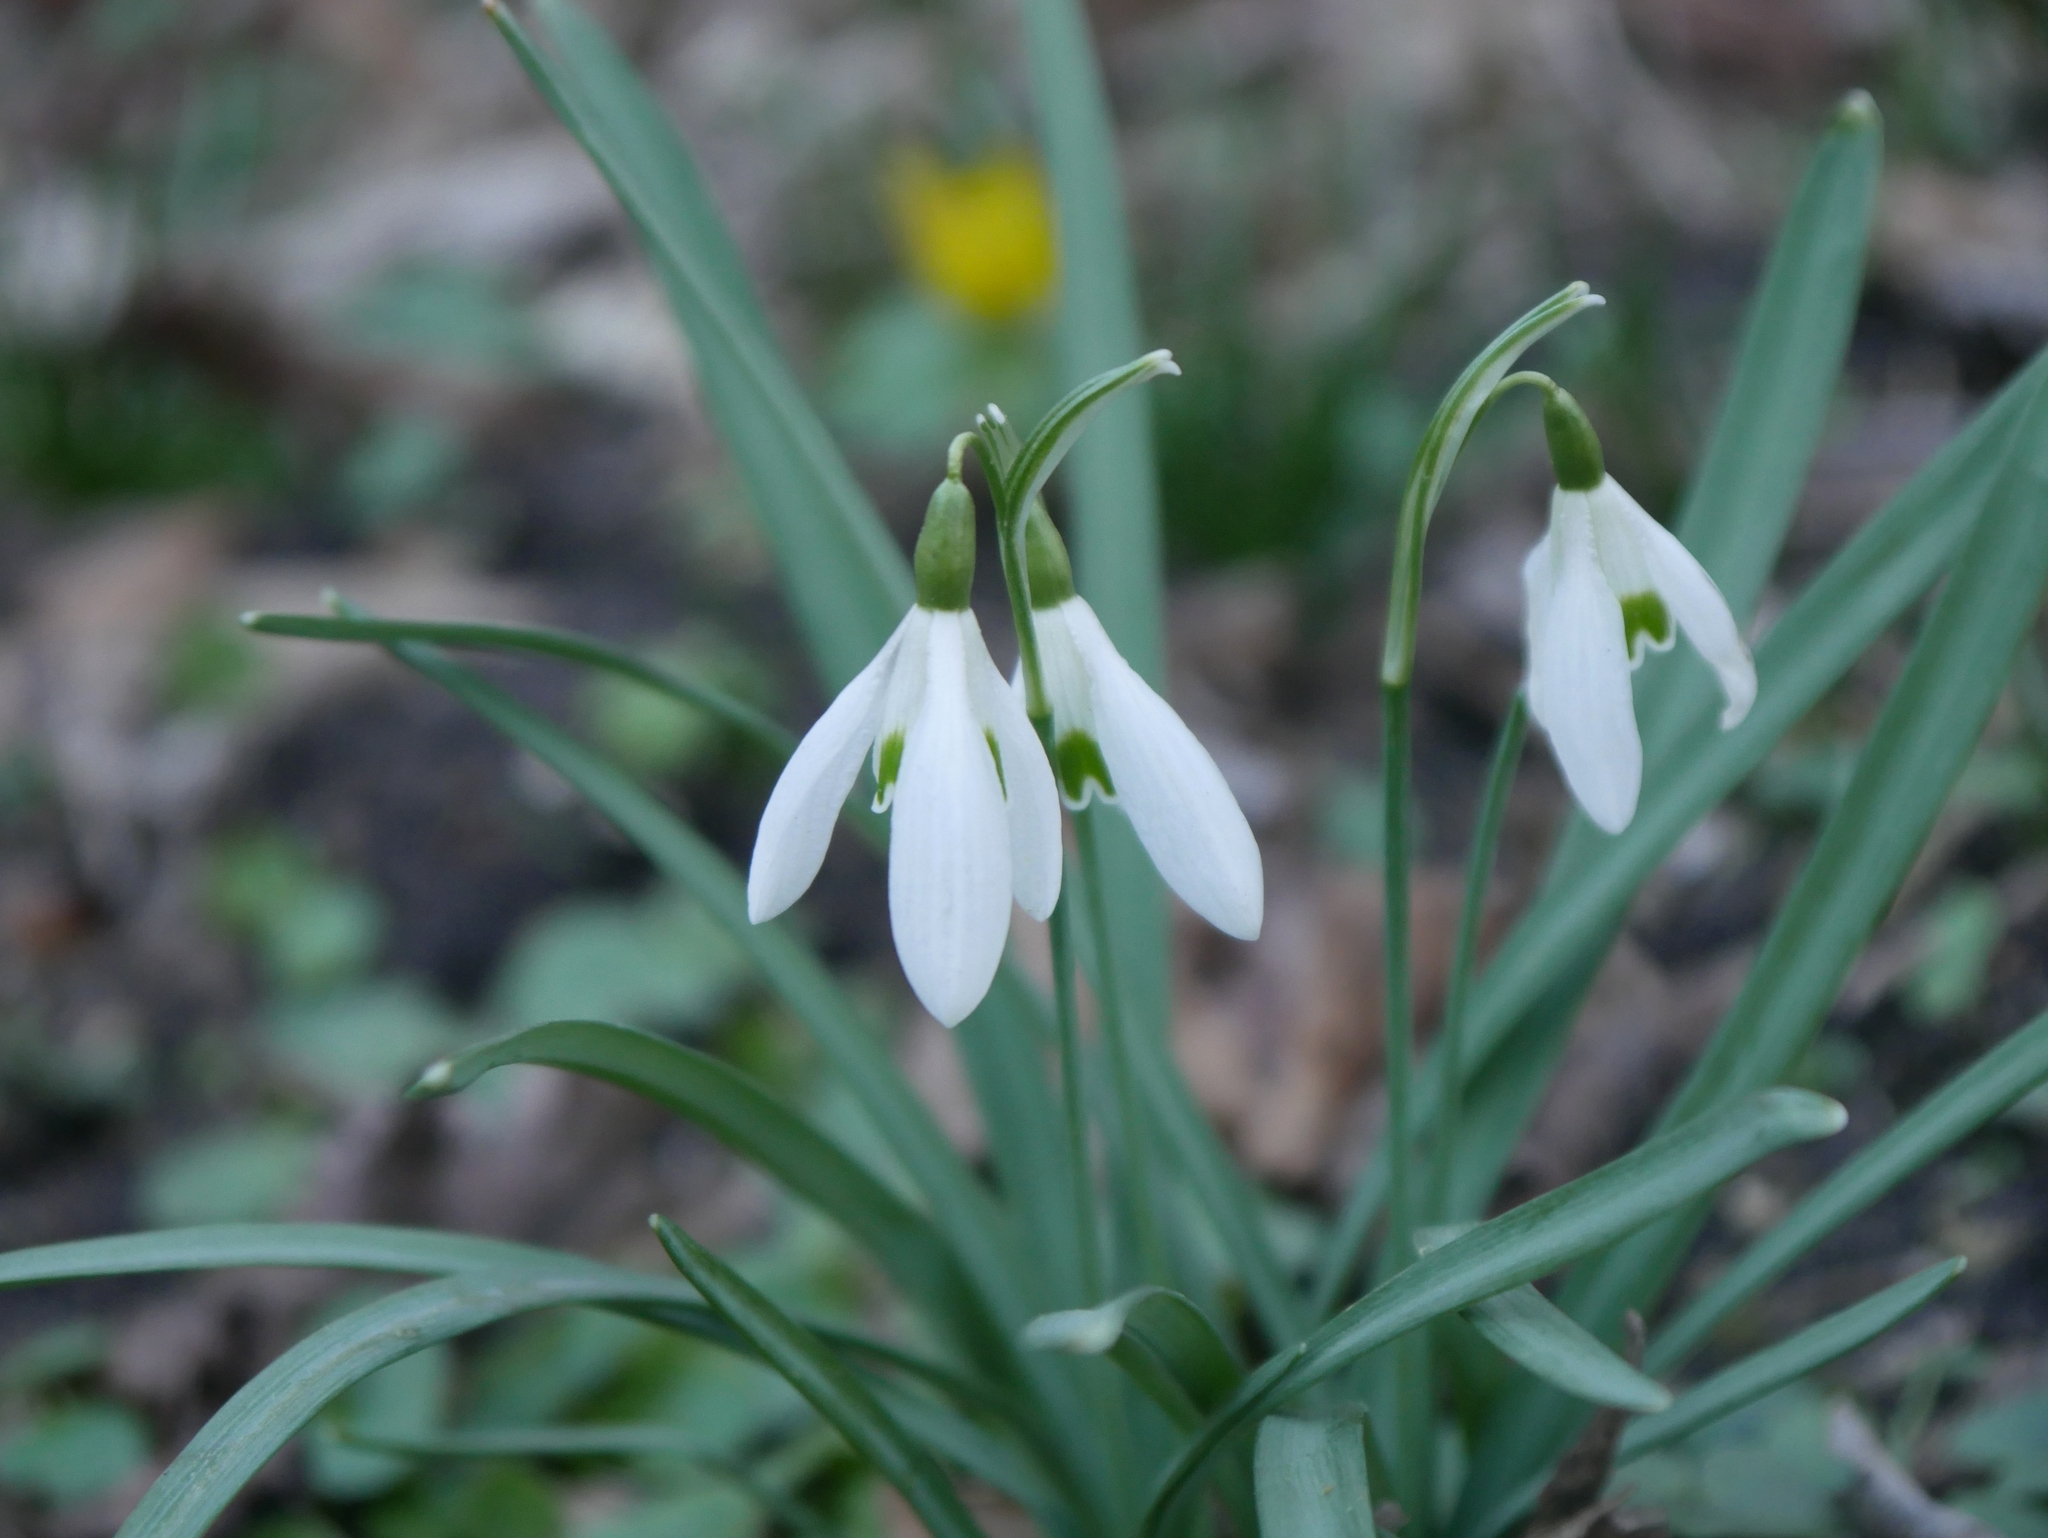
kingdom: Plantae
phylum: Tracheophyta
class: Liliopsida
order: Asparagales
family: Amaryllidaceae
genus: Galanthus
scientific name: Galanthus nivalis
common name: Snowdrop
